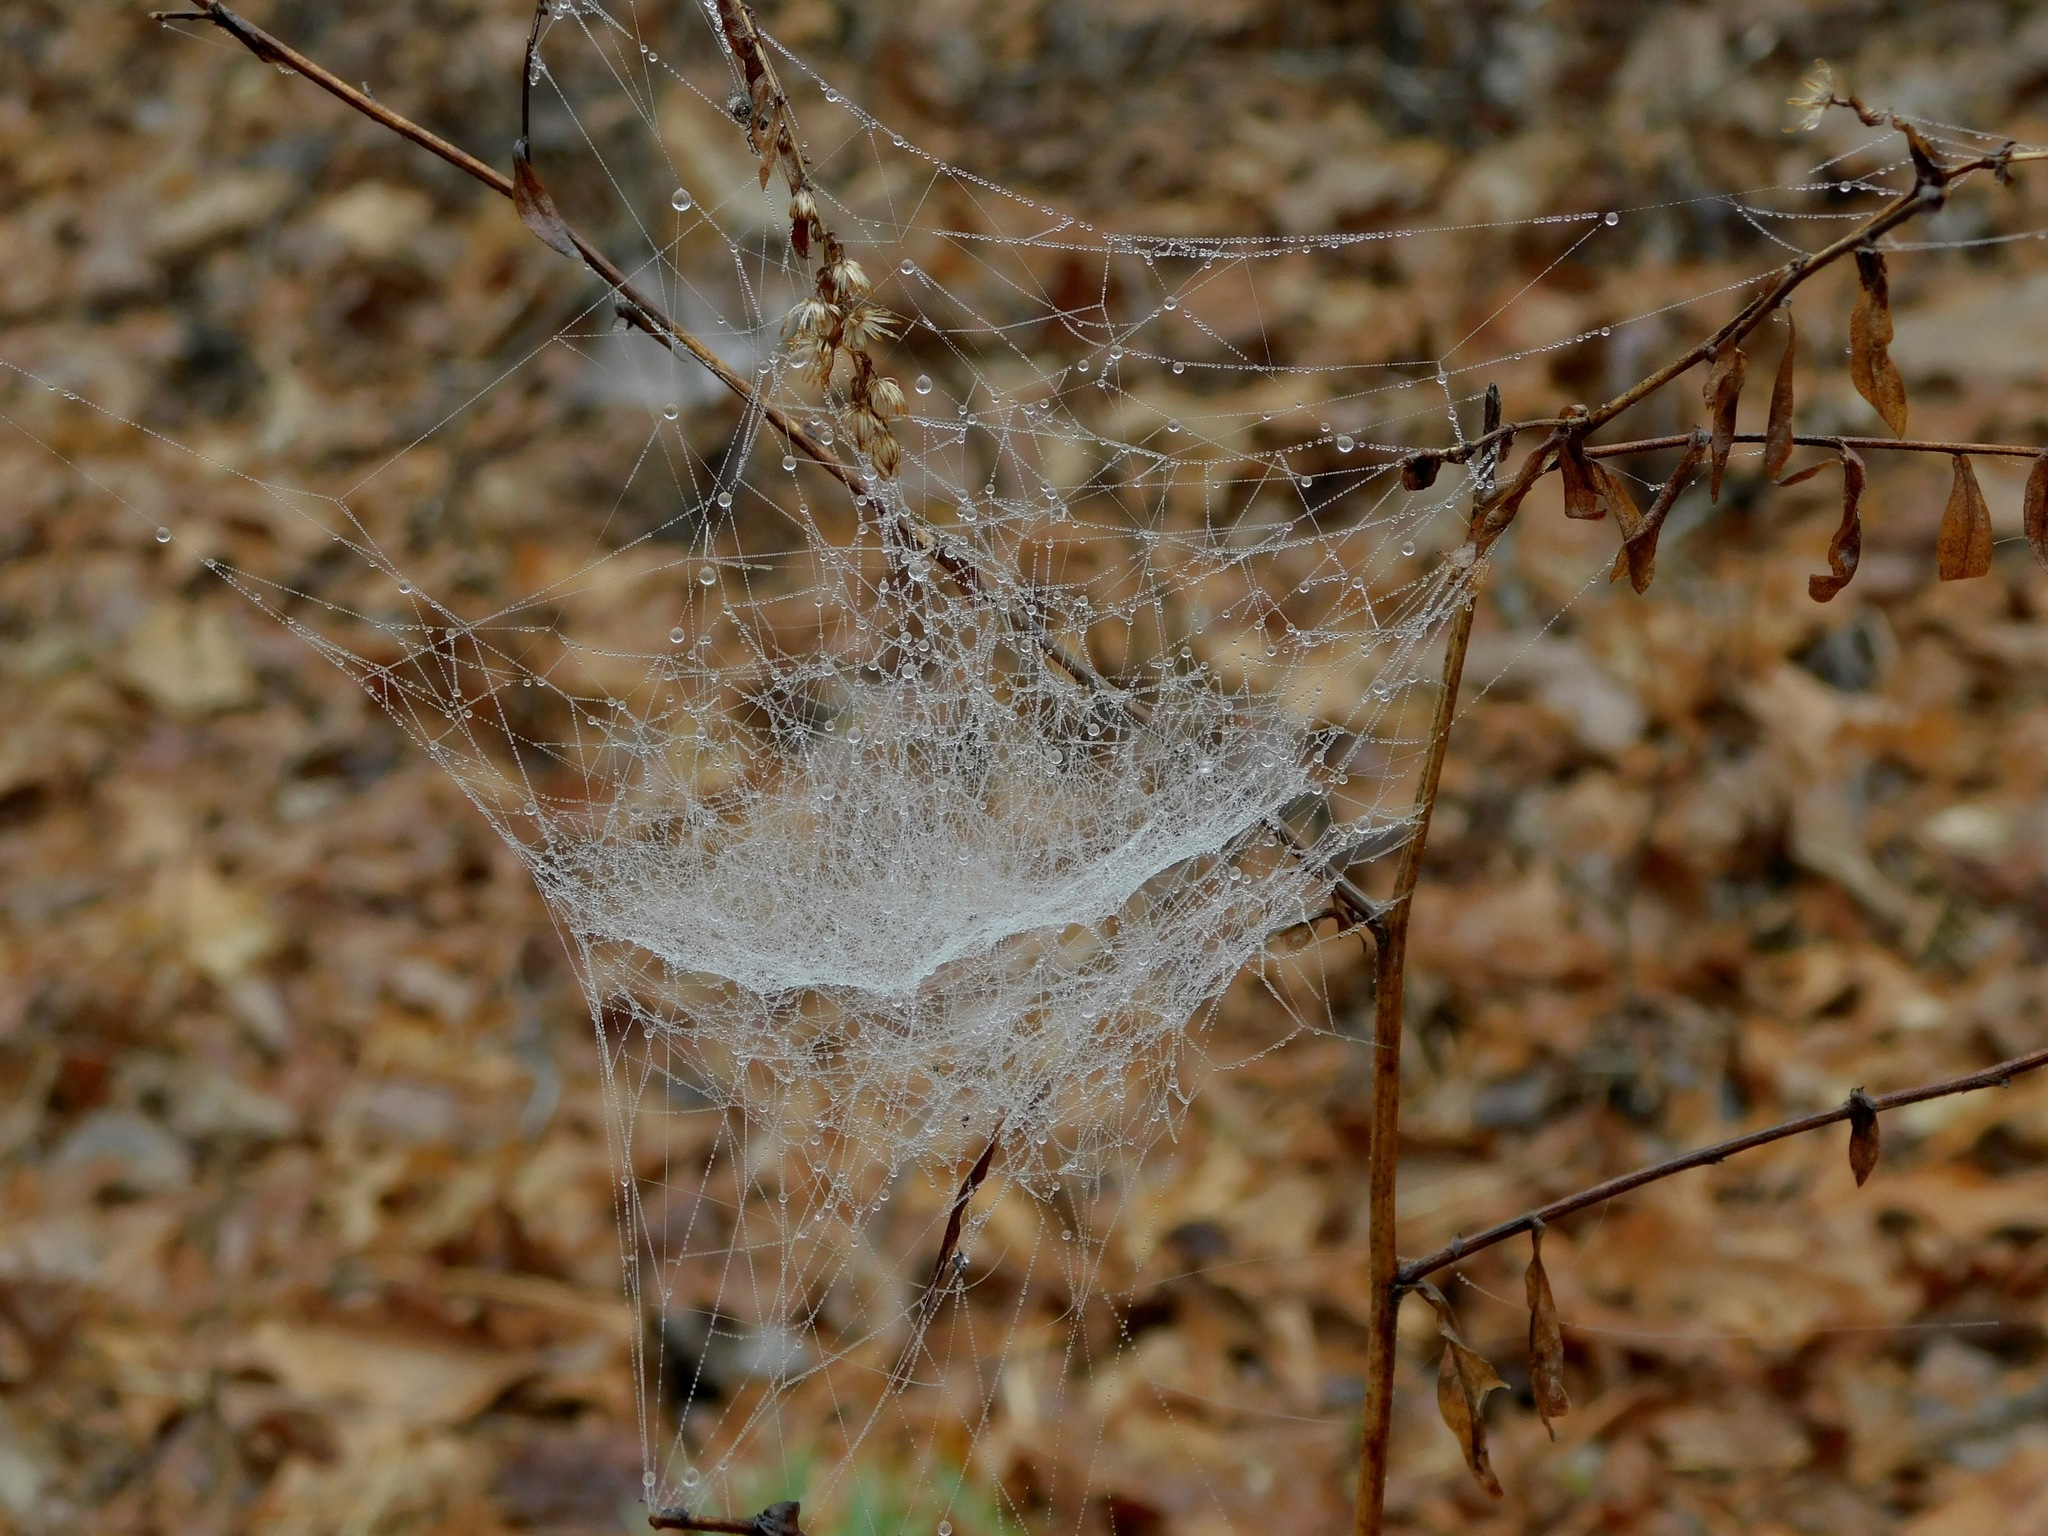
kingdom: Animalia
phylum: Arthropoda
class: Arachnida
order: Araneae
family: Linyphiidae
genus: Frontinella
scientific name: Frontinella pyramitela
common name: Bowl-and-doily spider
